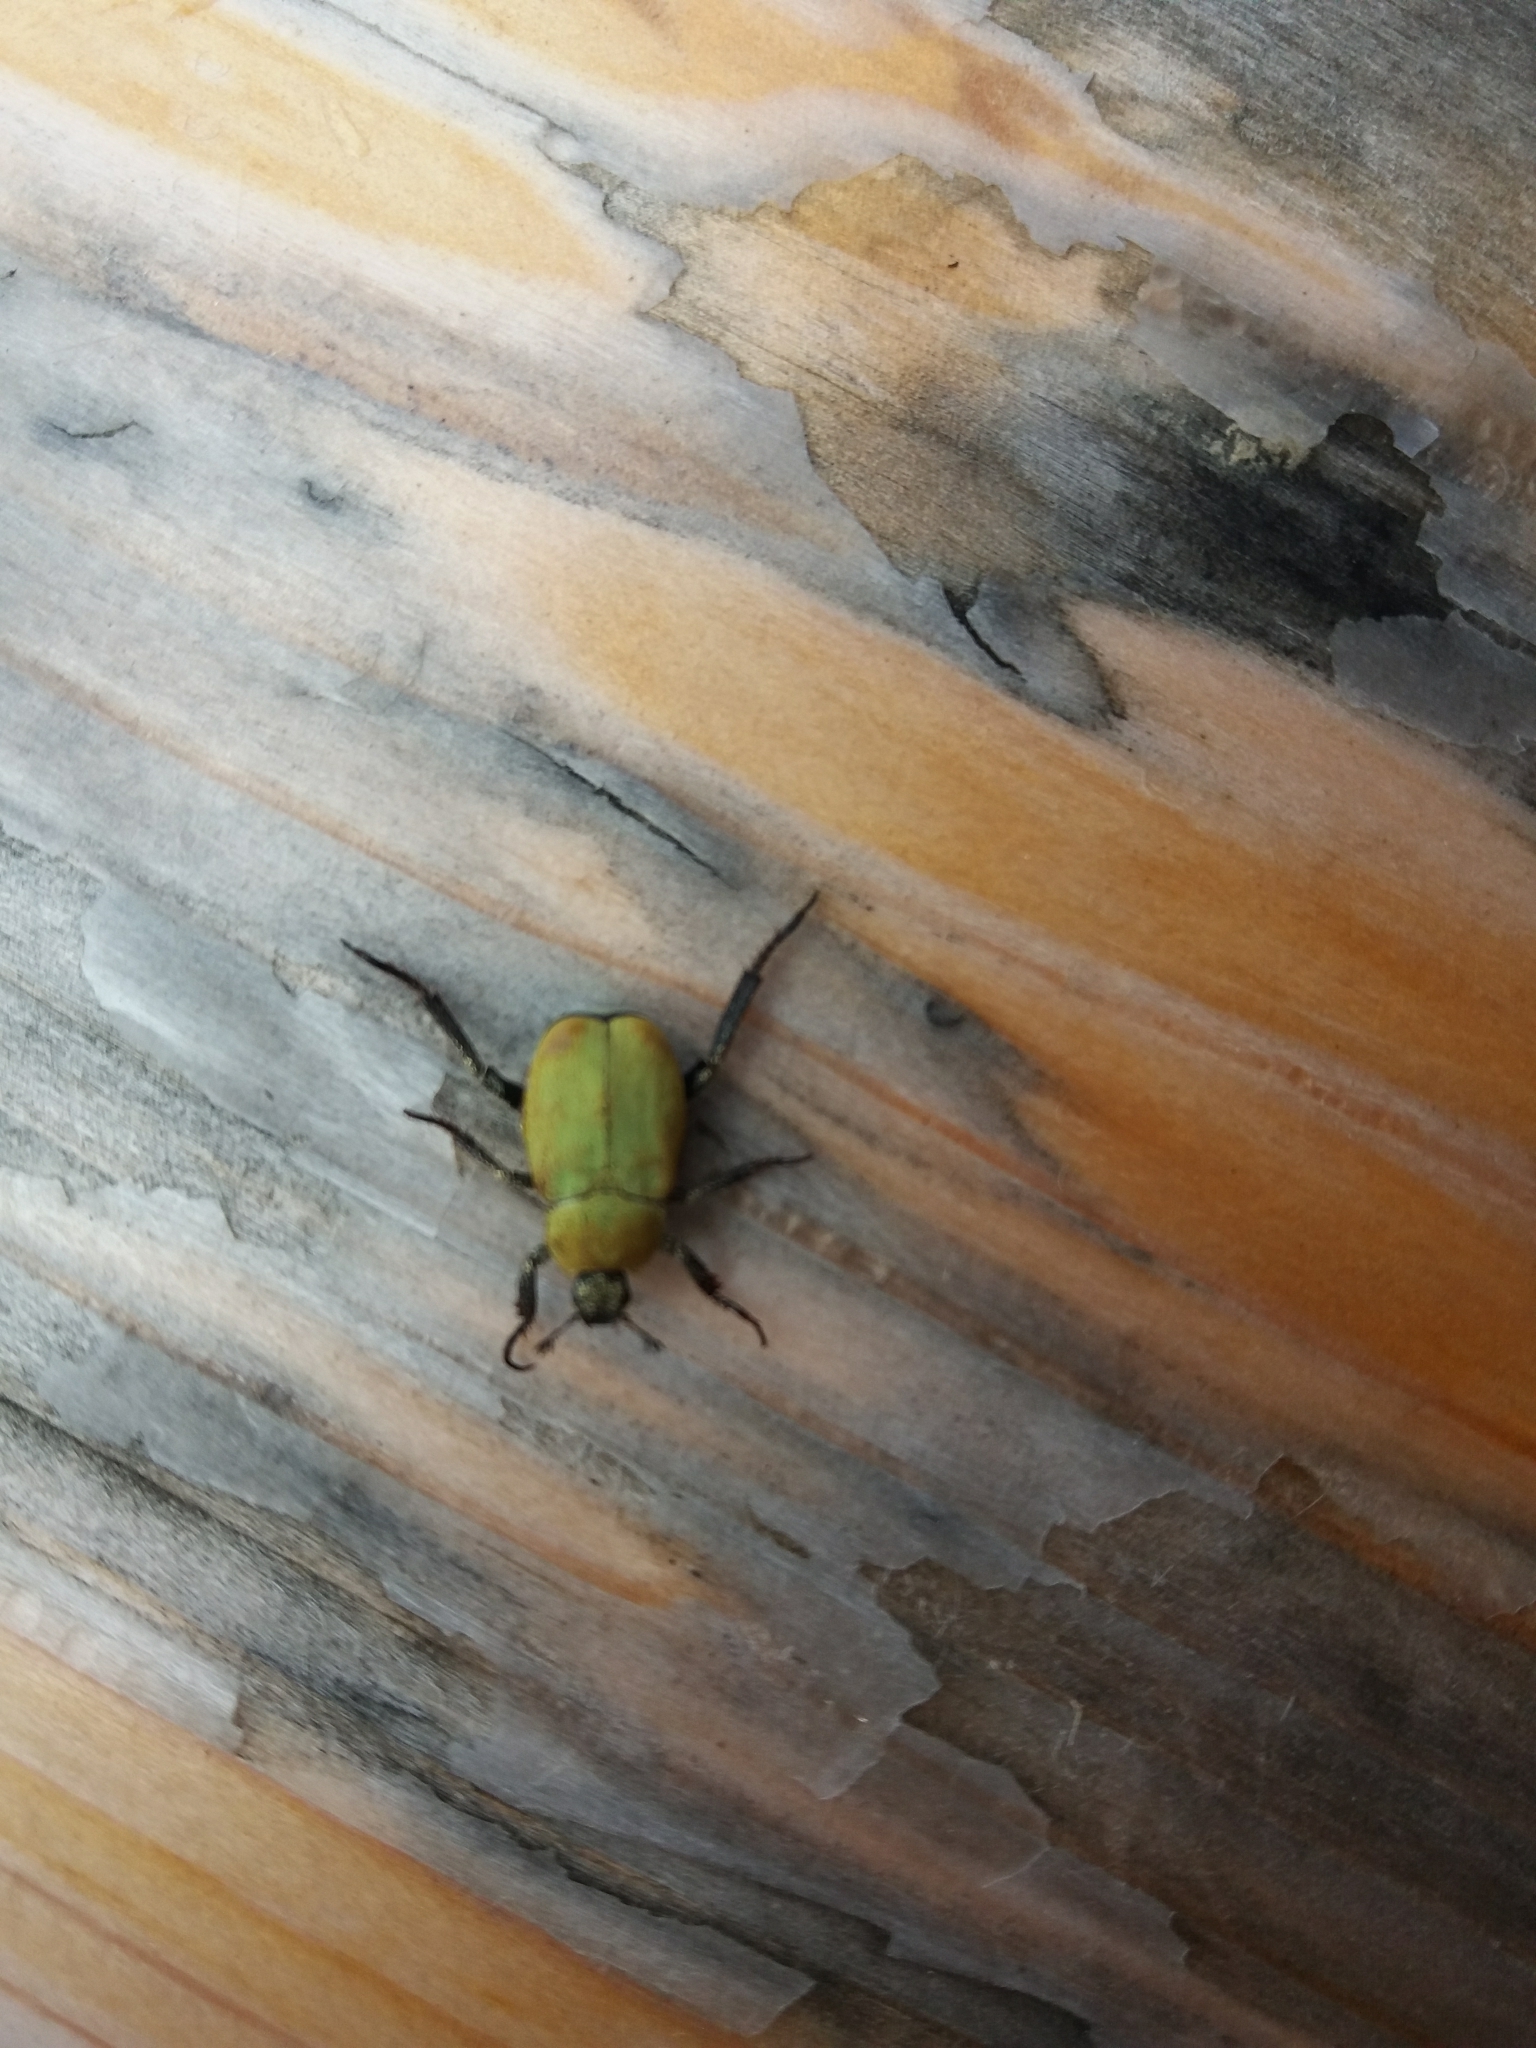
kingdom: Animalia
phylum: Arthropoda
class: Insecta
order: Coleoptera
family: Scarabaeidae
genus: Hoplia
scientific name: Hoplia argentea
